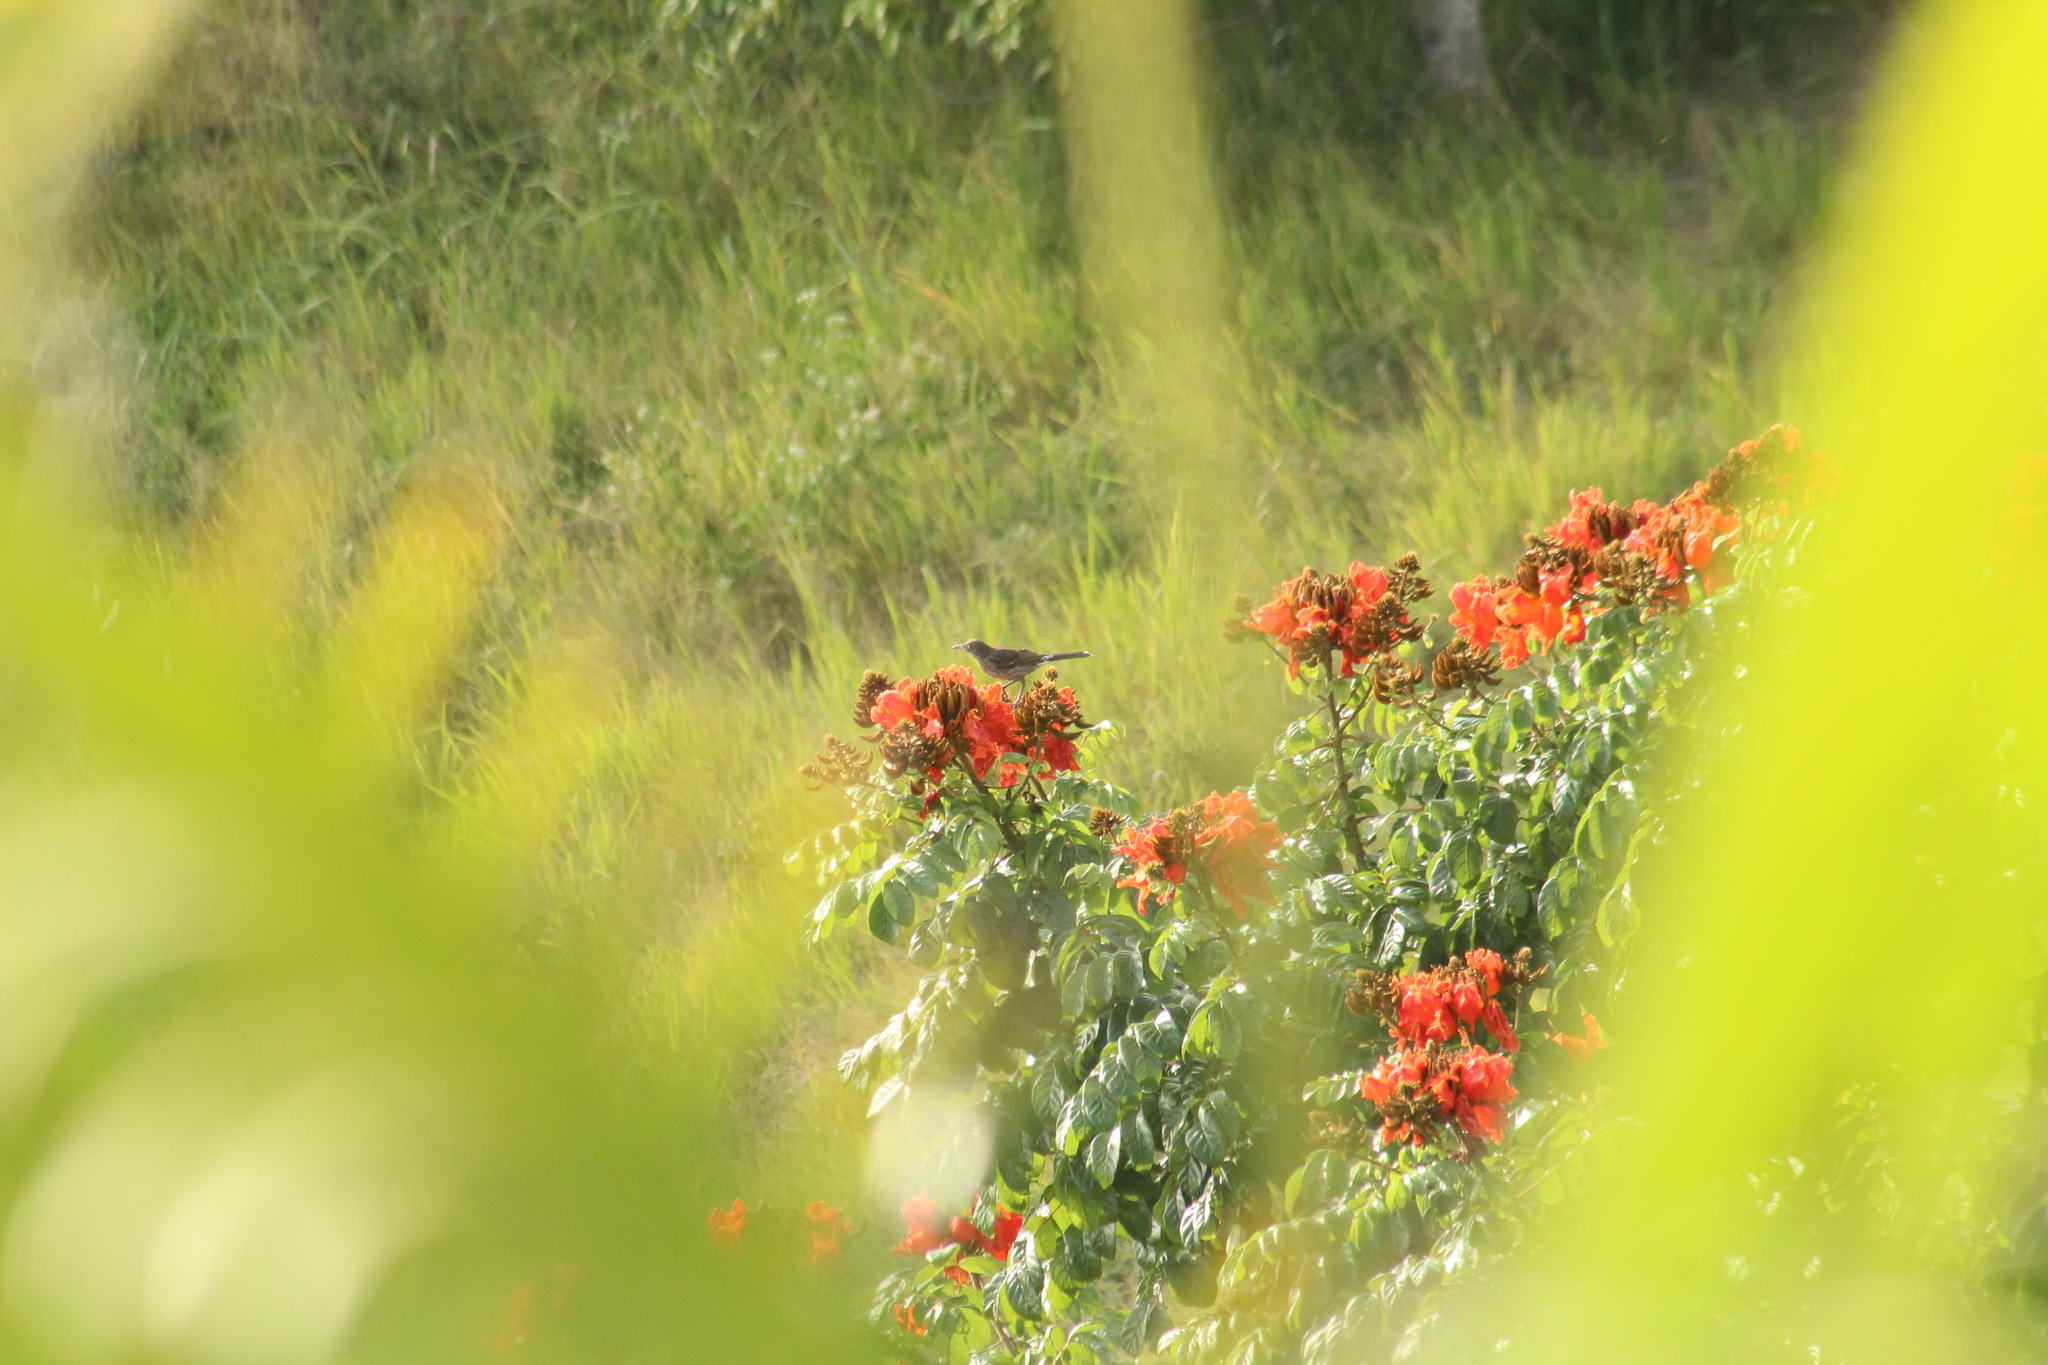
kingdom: Animalia
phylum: Chordata
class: Aves
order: Passeriformes
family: Mimidae
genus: Margarops
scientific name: Margarops fuscatus
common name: Pearly-eyed thrasher
